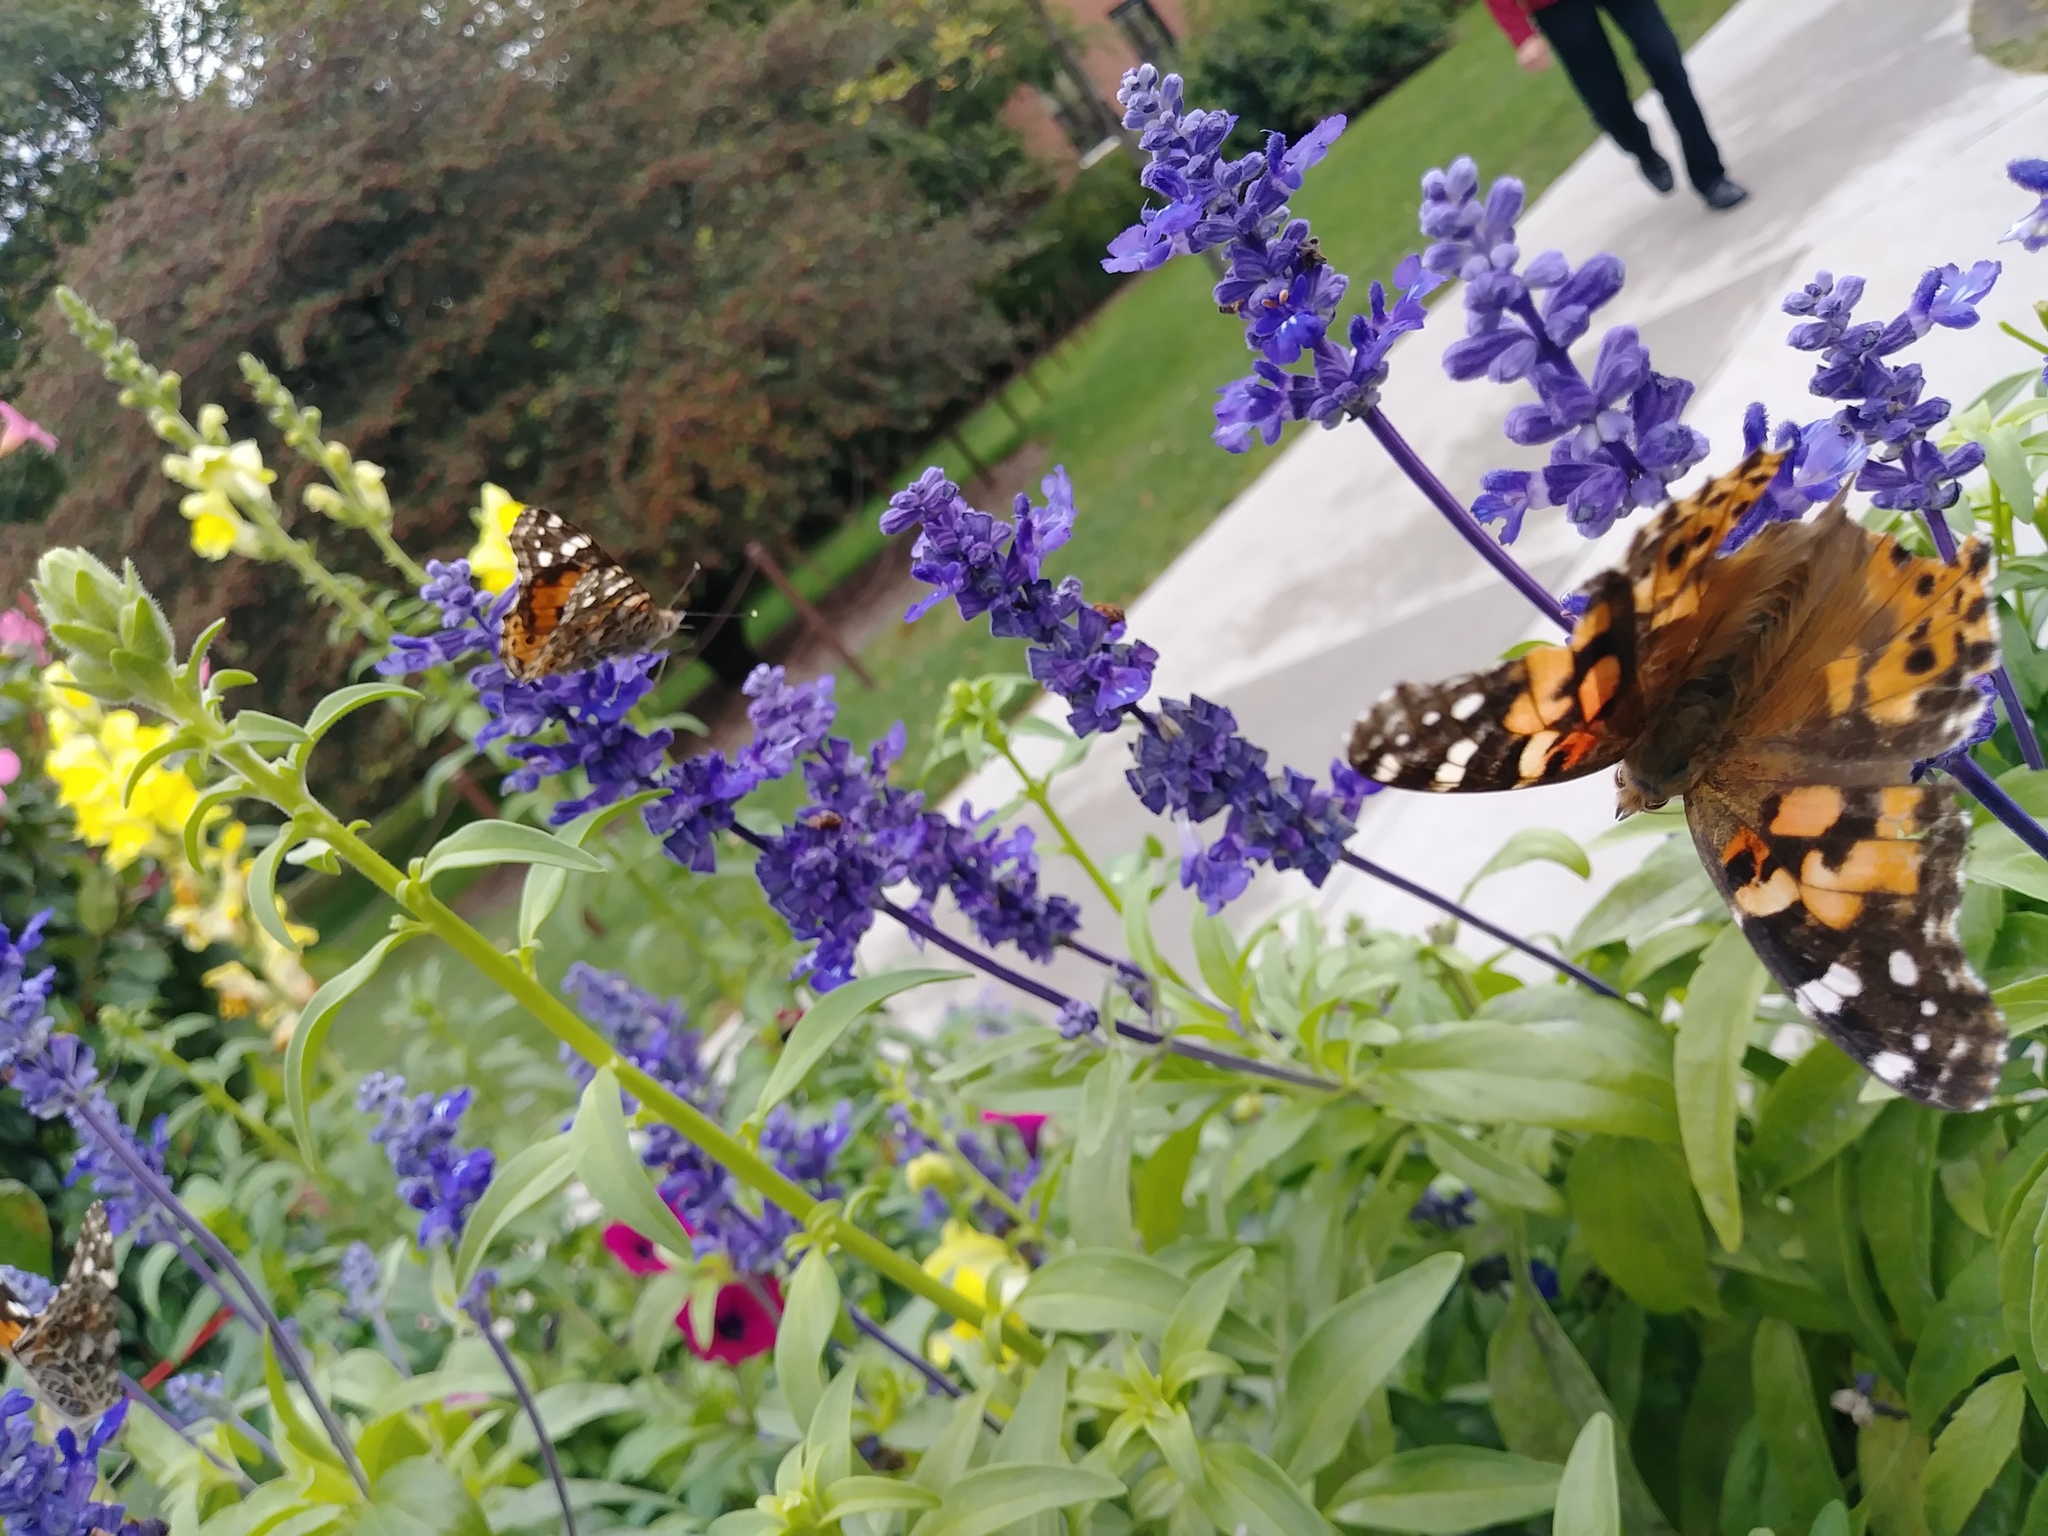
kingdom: Animalia
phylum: Arthropoda
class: Insecta
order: Lepidoptera
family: Nymphalidae
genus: Vanessa
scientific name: Vanessa cardui
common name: Painted lady
